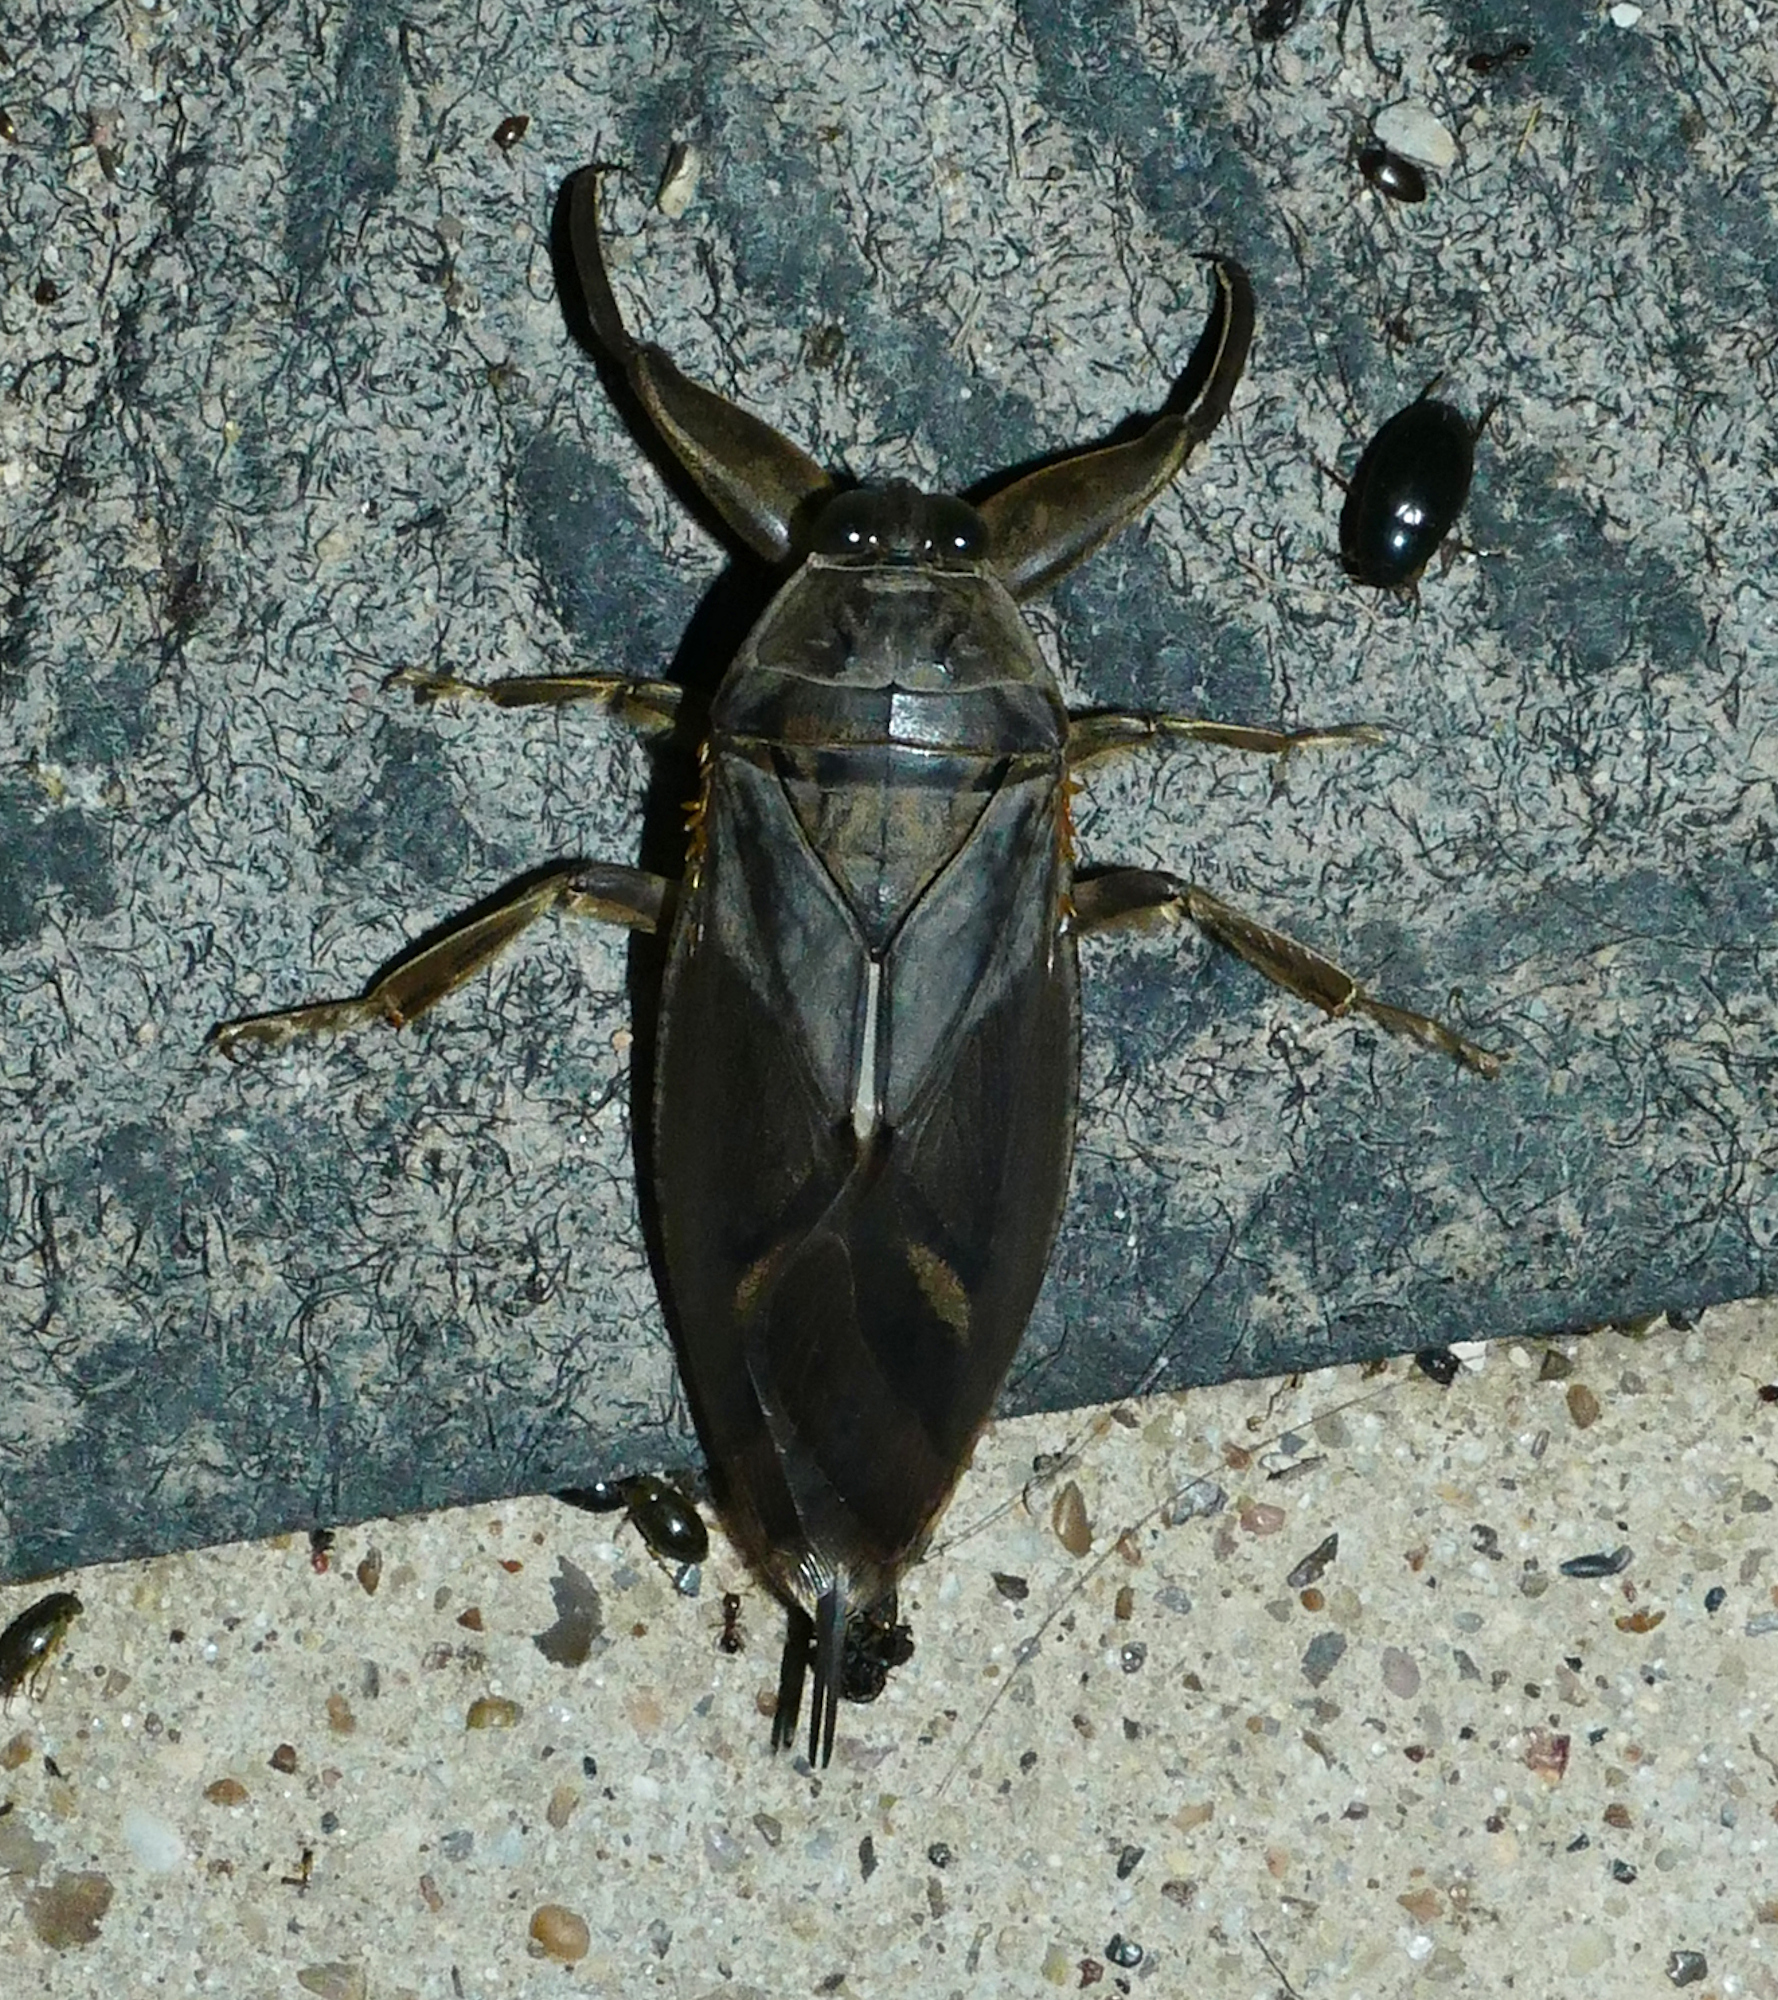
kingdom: Animalia
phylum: Arthropoda
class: Insecta
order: Hemiptera
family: Belostomatidae
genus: Lethocerus
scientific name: Lethocerus uhleri
